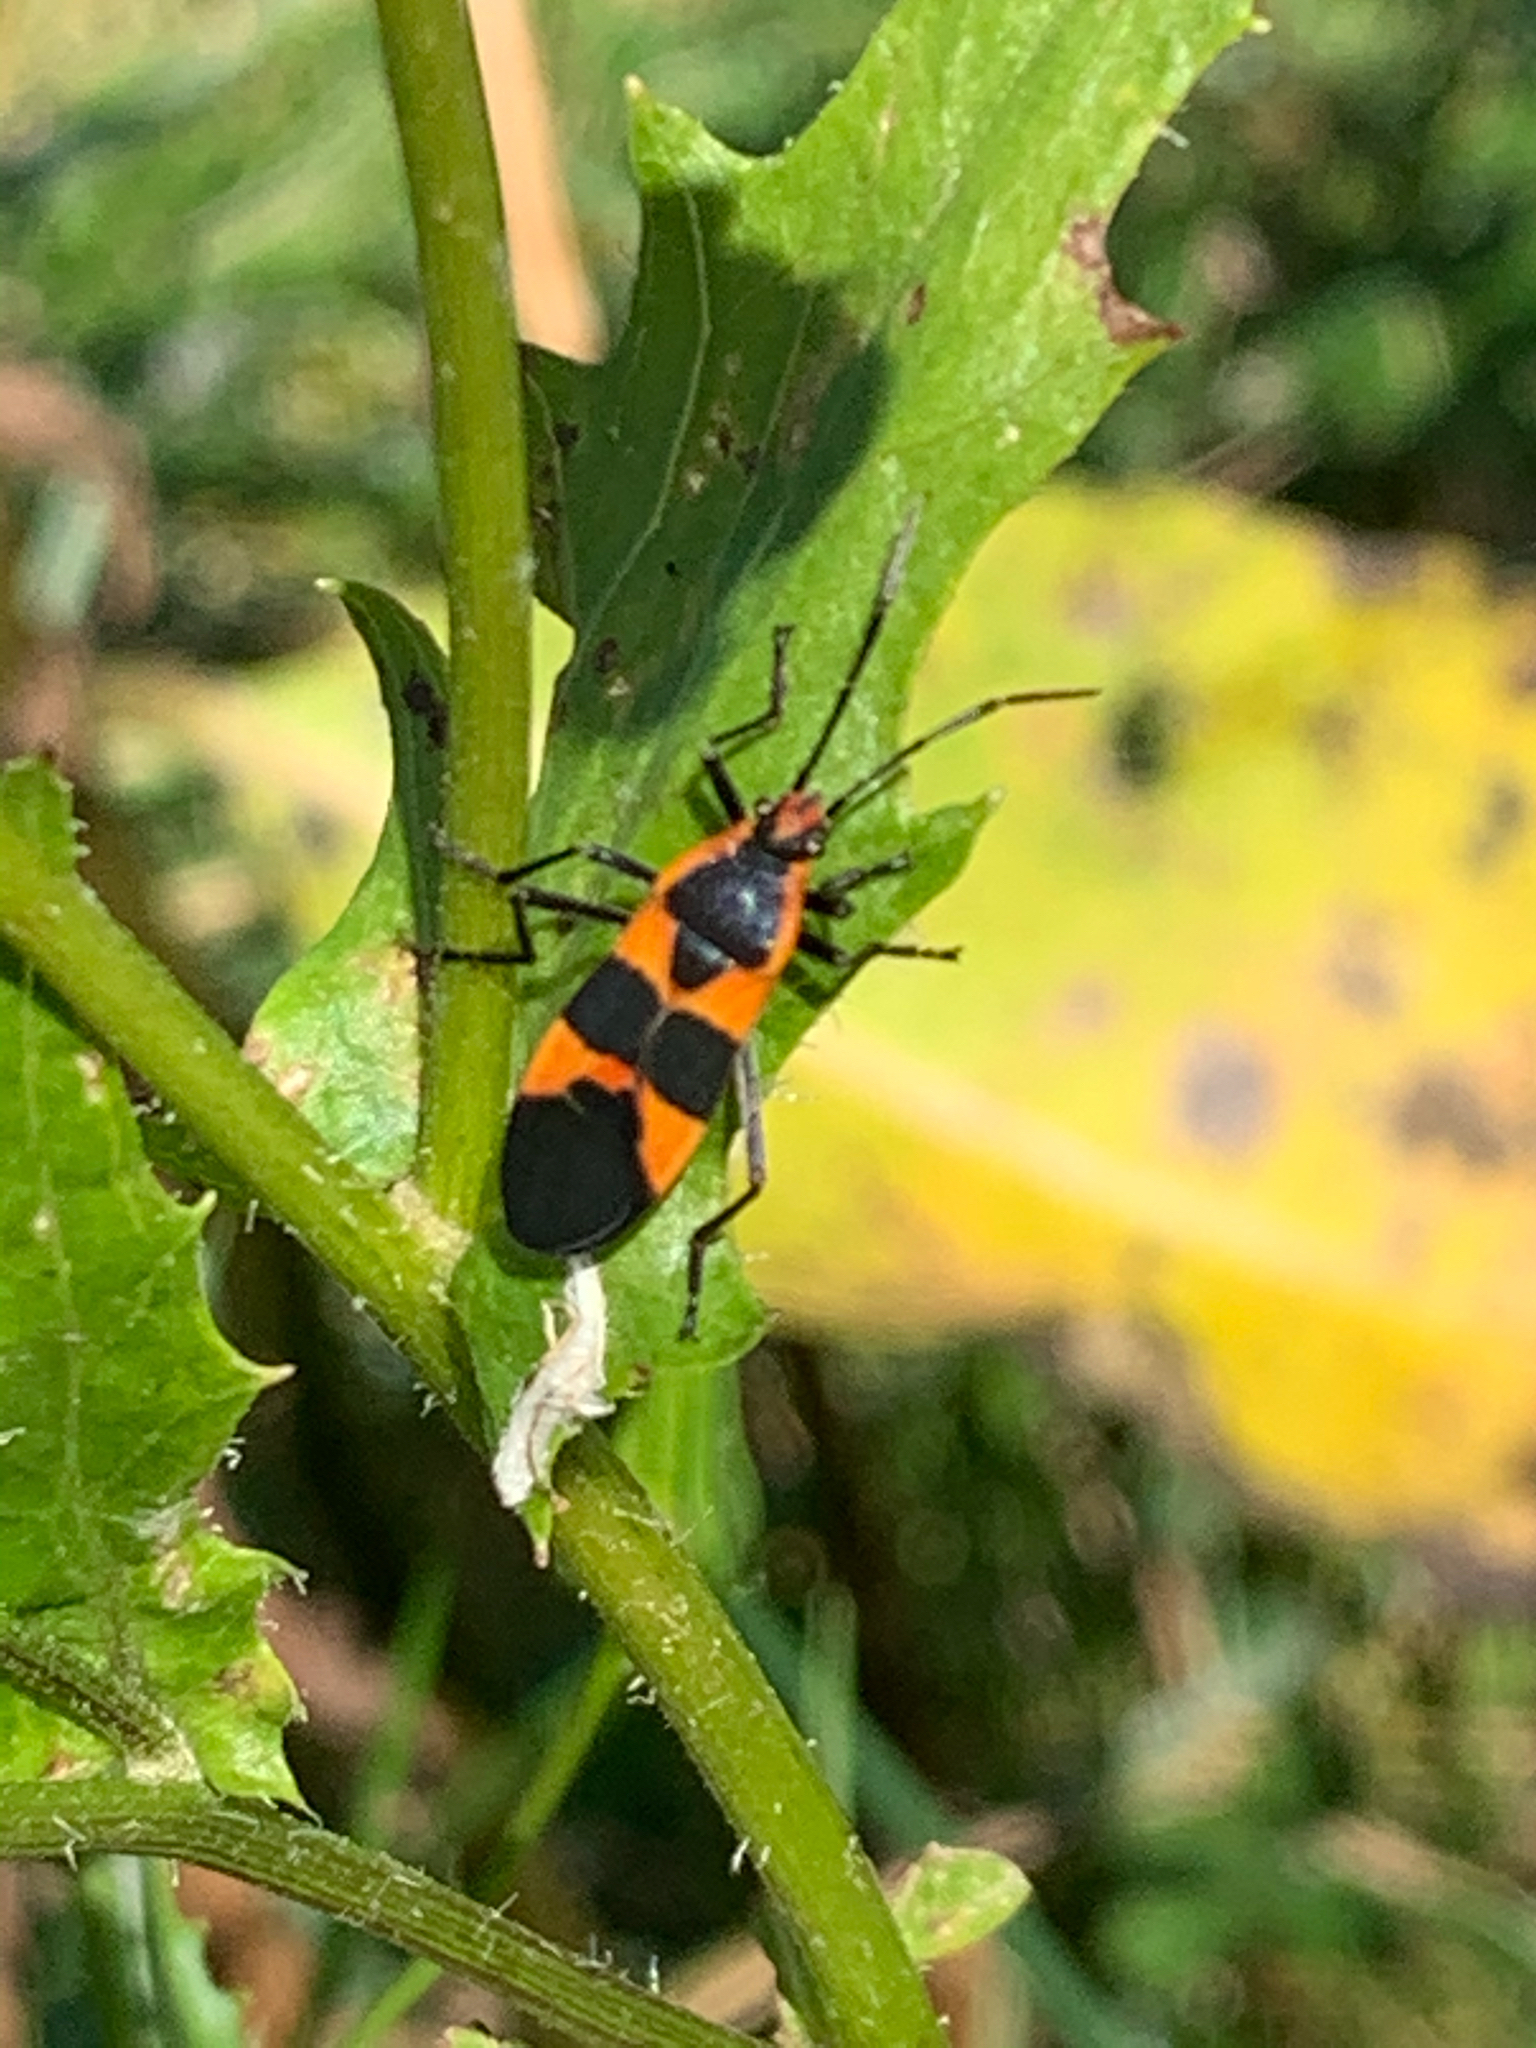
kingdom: Animalia
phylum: Arthropoda
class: Insecta
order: Hemiptera
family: Lygaeidae
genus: Oncopeltus
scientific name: Oncopeltus fasciatus
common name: Large milkweed bug
